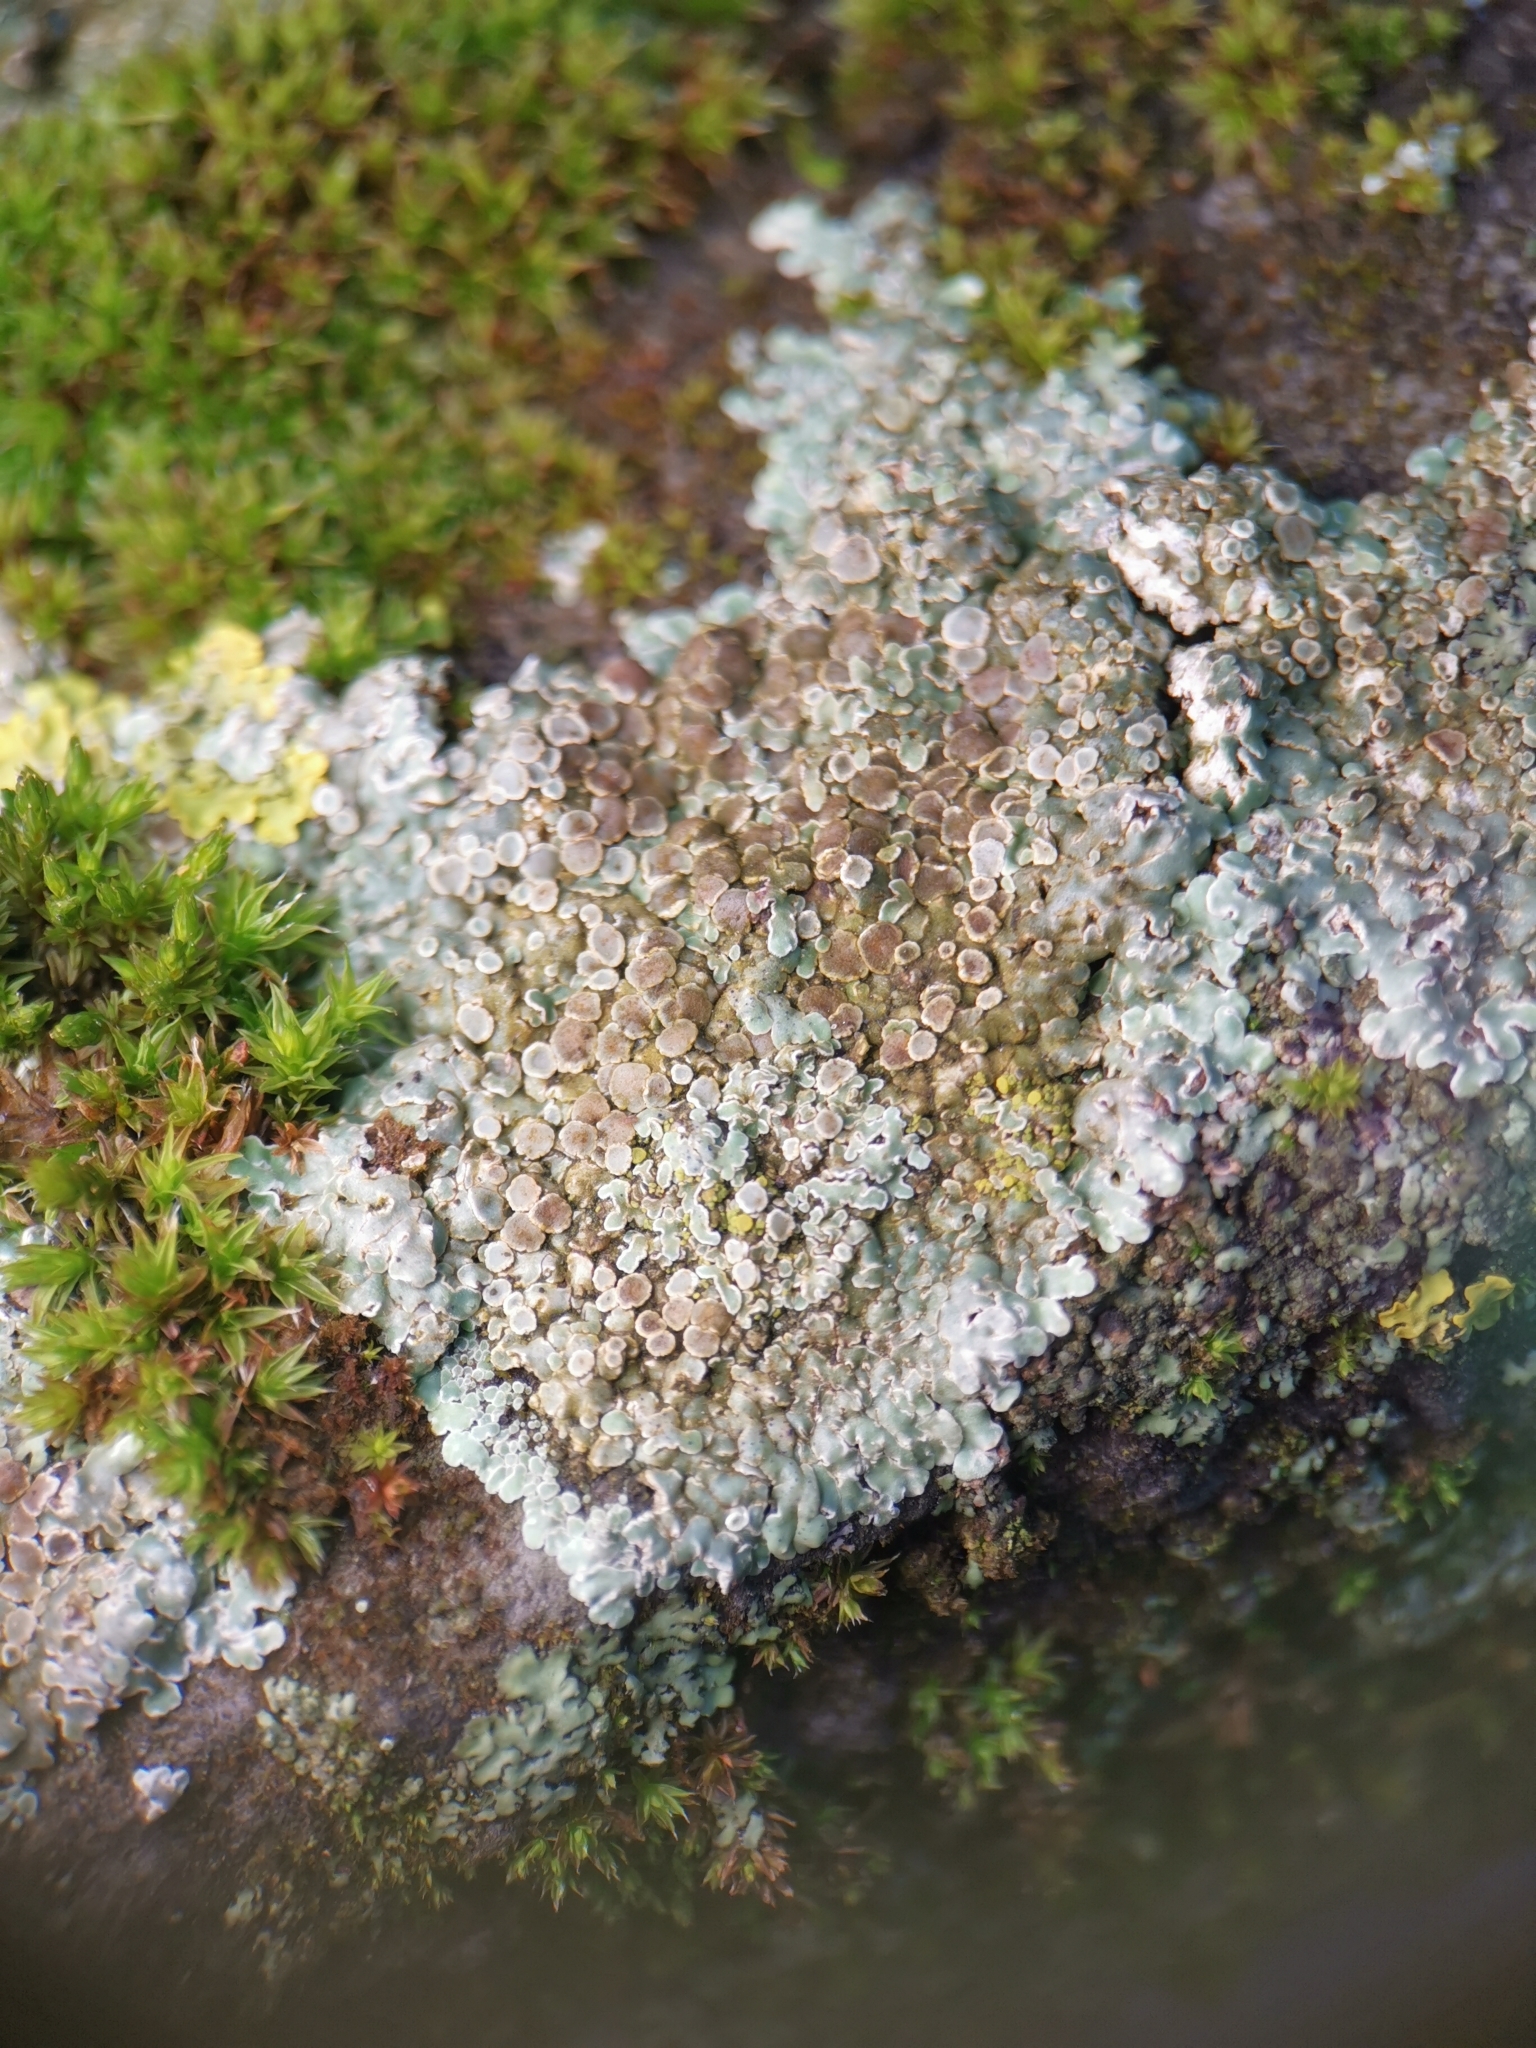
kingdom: Fungi
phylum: Ascomycota
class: Lecanoromycetes
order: Lecanorales
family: Lecanoraceae
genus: Protoparmeliopsis
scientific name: Protoparmeliopsis muralis
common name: Stonewall rim lichen
